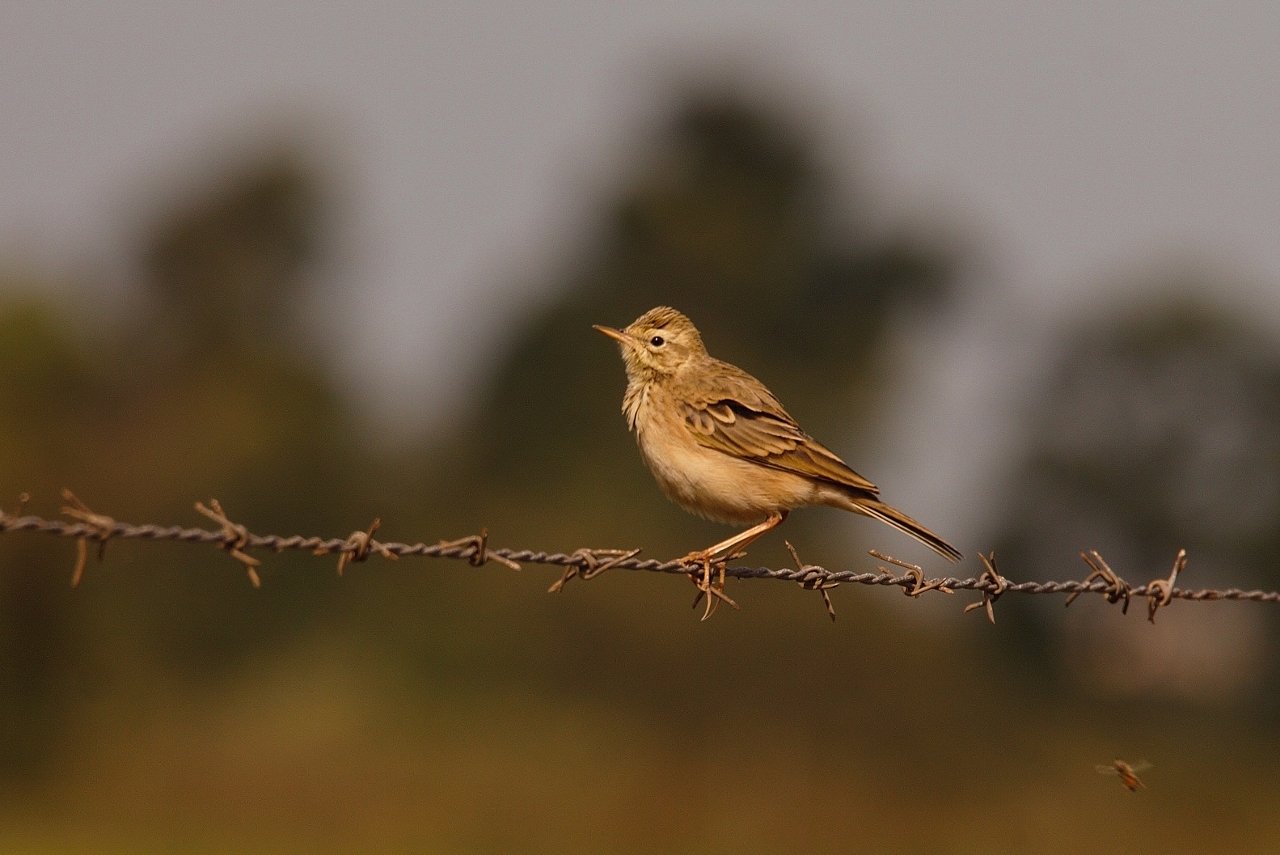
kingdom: Animalia
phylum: Chordata
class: Aves
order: Passeriformes
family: Motacillidae
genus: Anthus
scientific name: Anthus cinnamomeus
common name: African pipit
